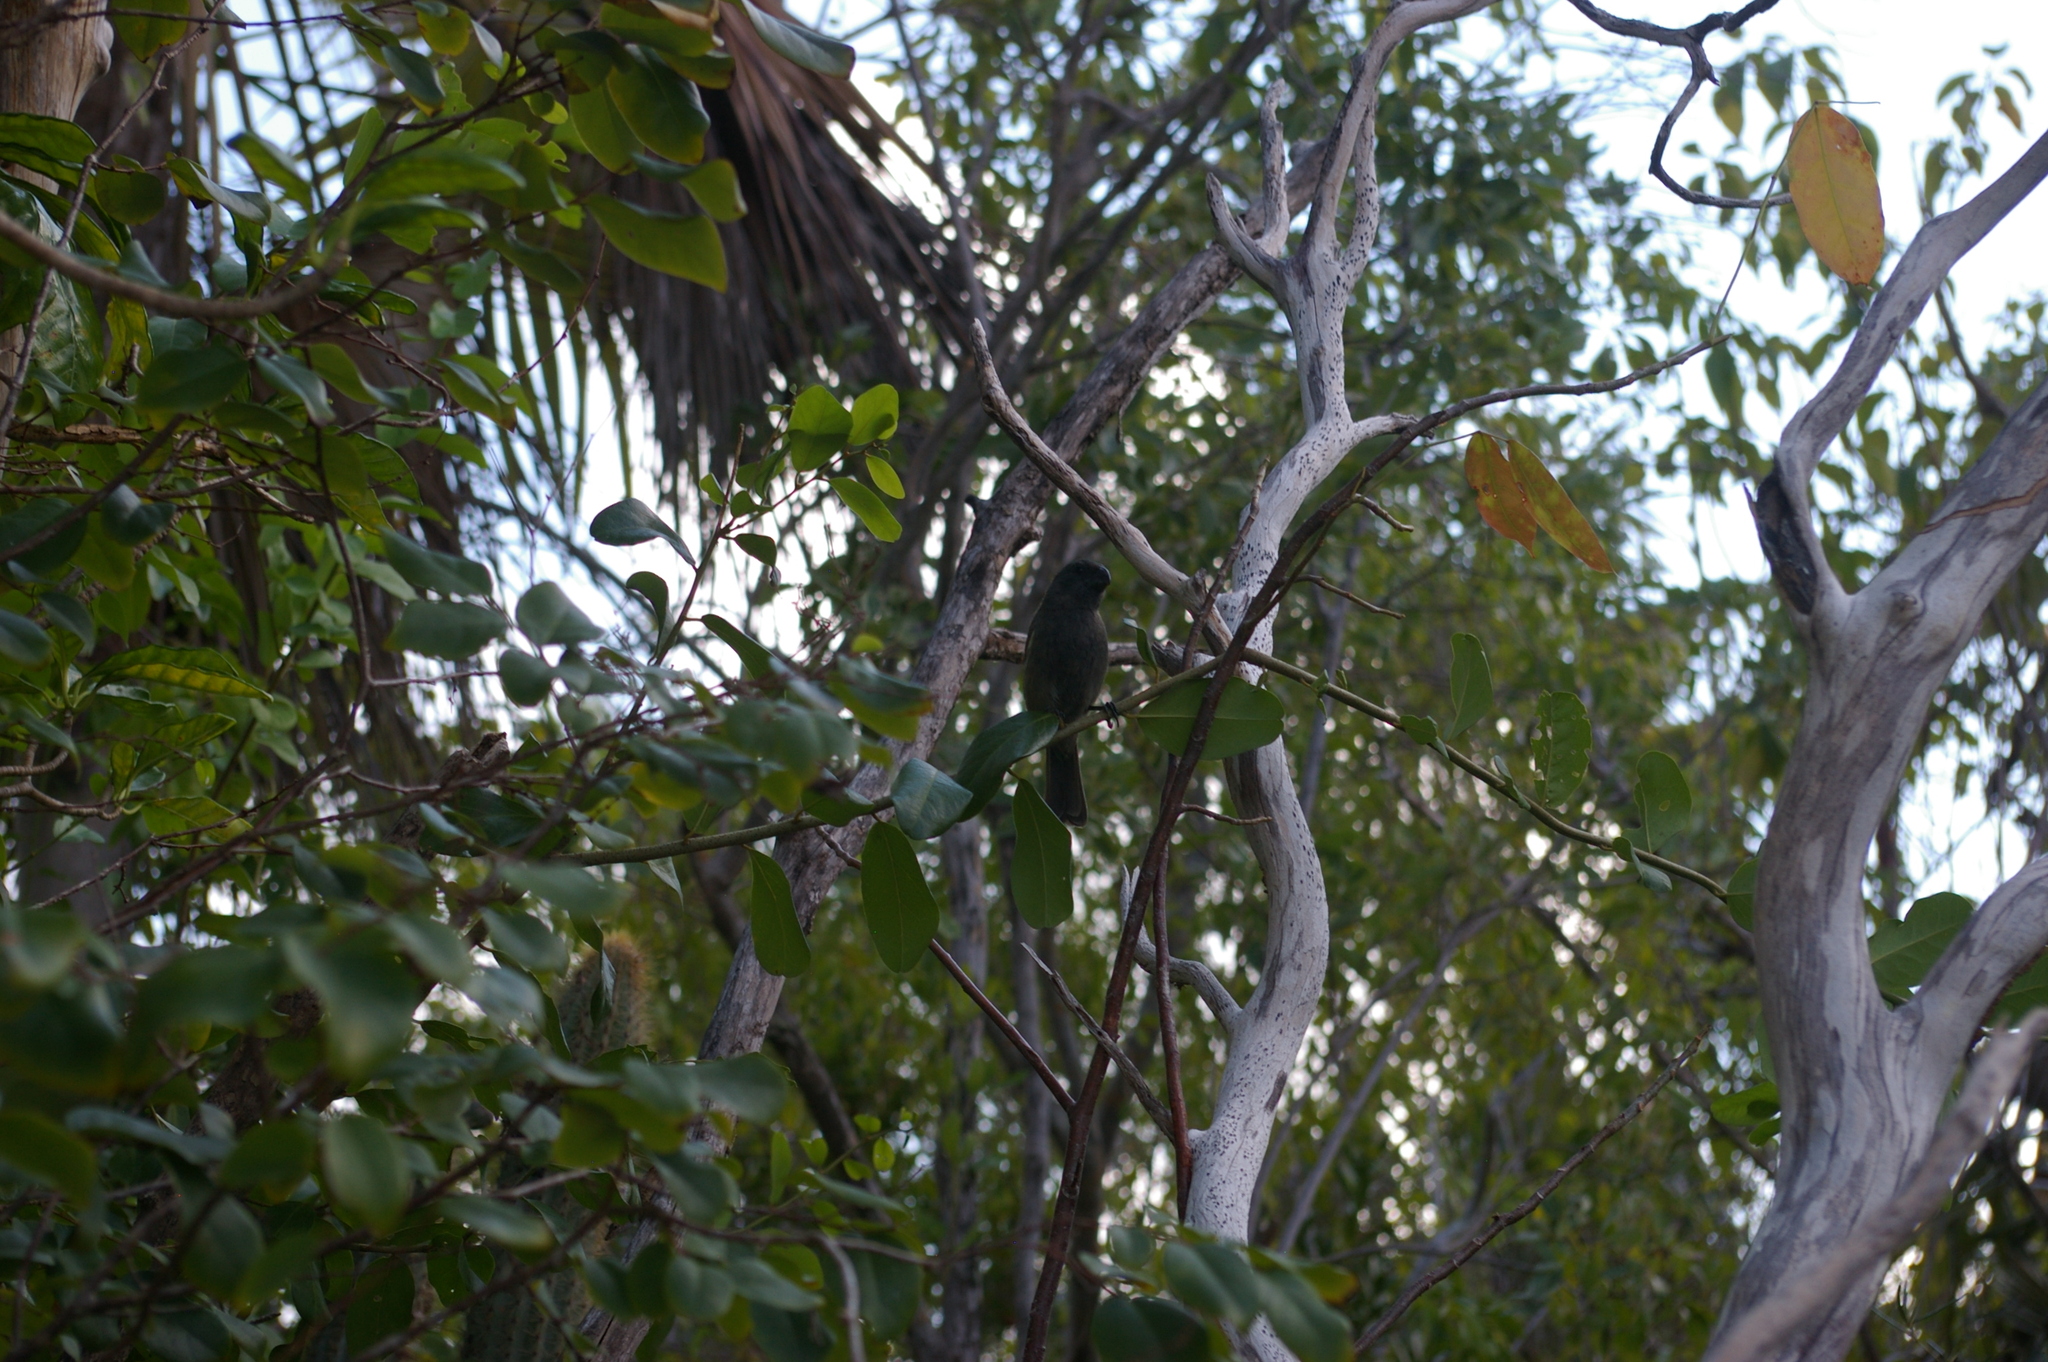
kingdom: Animalia
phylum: Chordata
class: Aves
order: Passeriformes
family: Thraupidae
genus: Melopyrrha
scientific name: Melopyrrha nigra
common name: Cuban bullfinch
